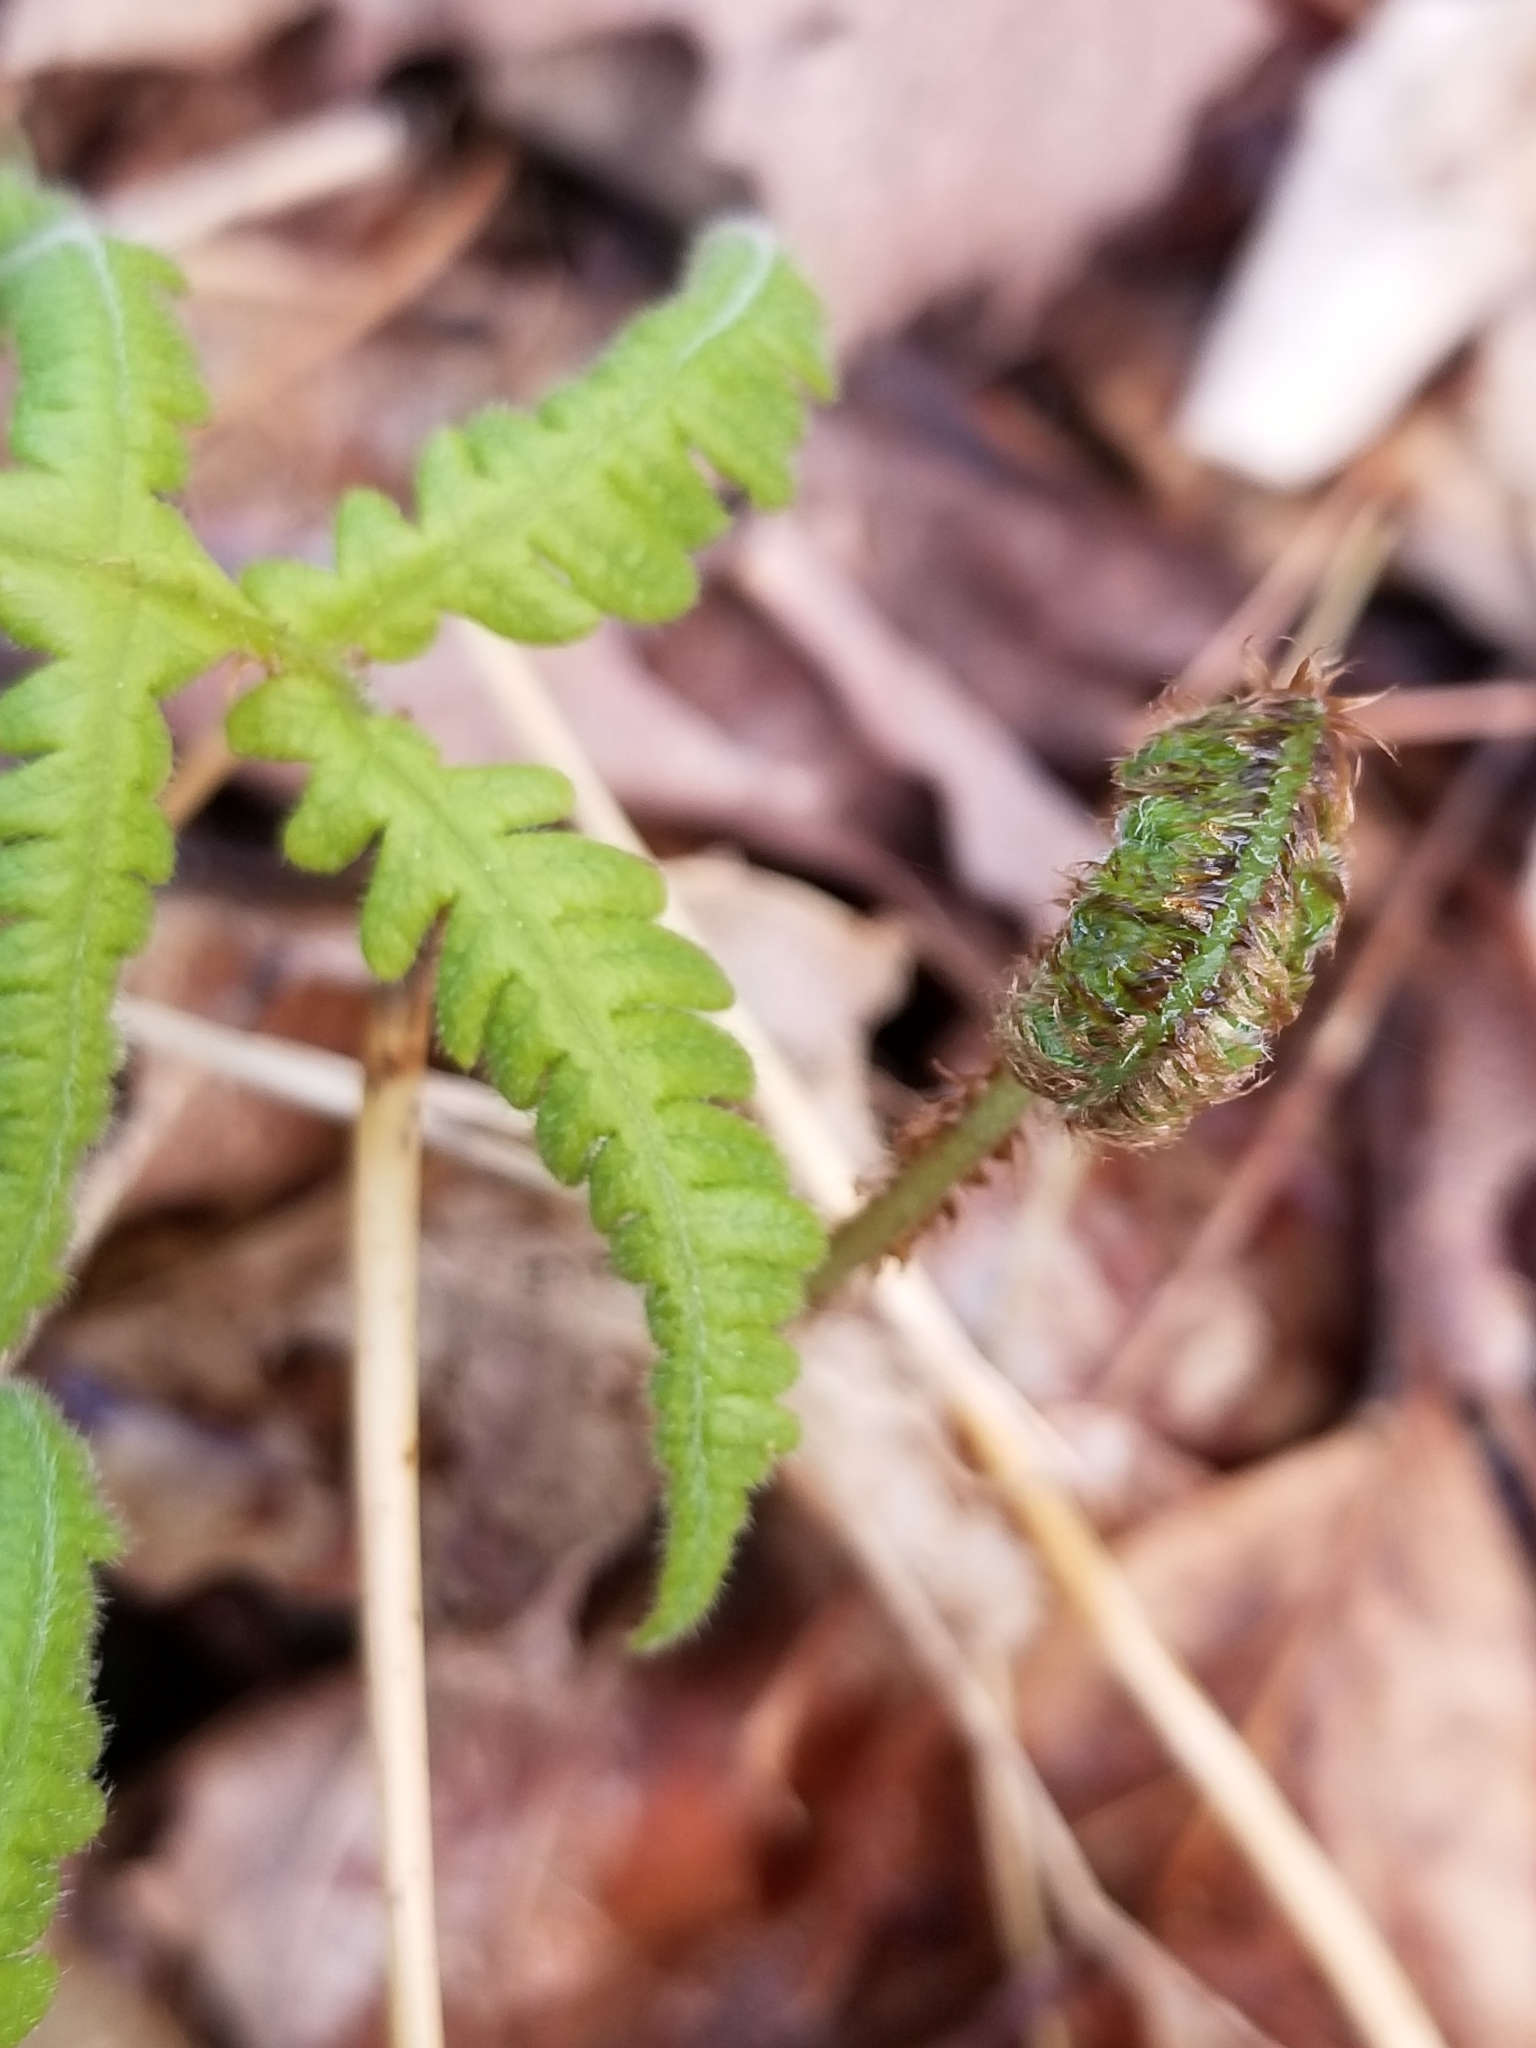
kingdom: Plantae
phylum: Tracheophyta
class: Polypodiopsida
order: Polypodiales
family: Thelypteridaceae
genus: Phegopteris
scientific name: Phegopteris connectilis
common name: Beech fern
